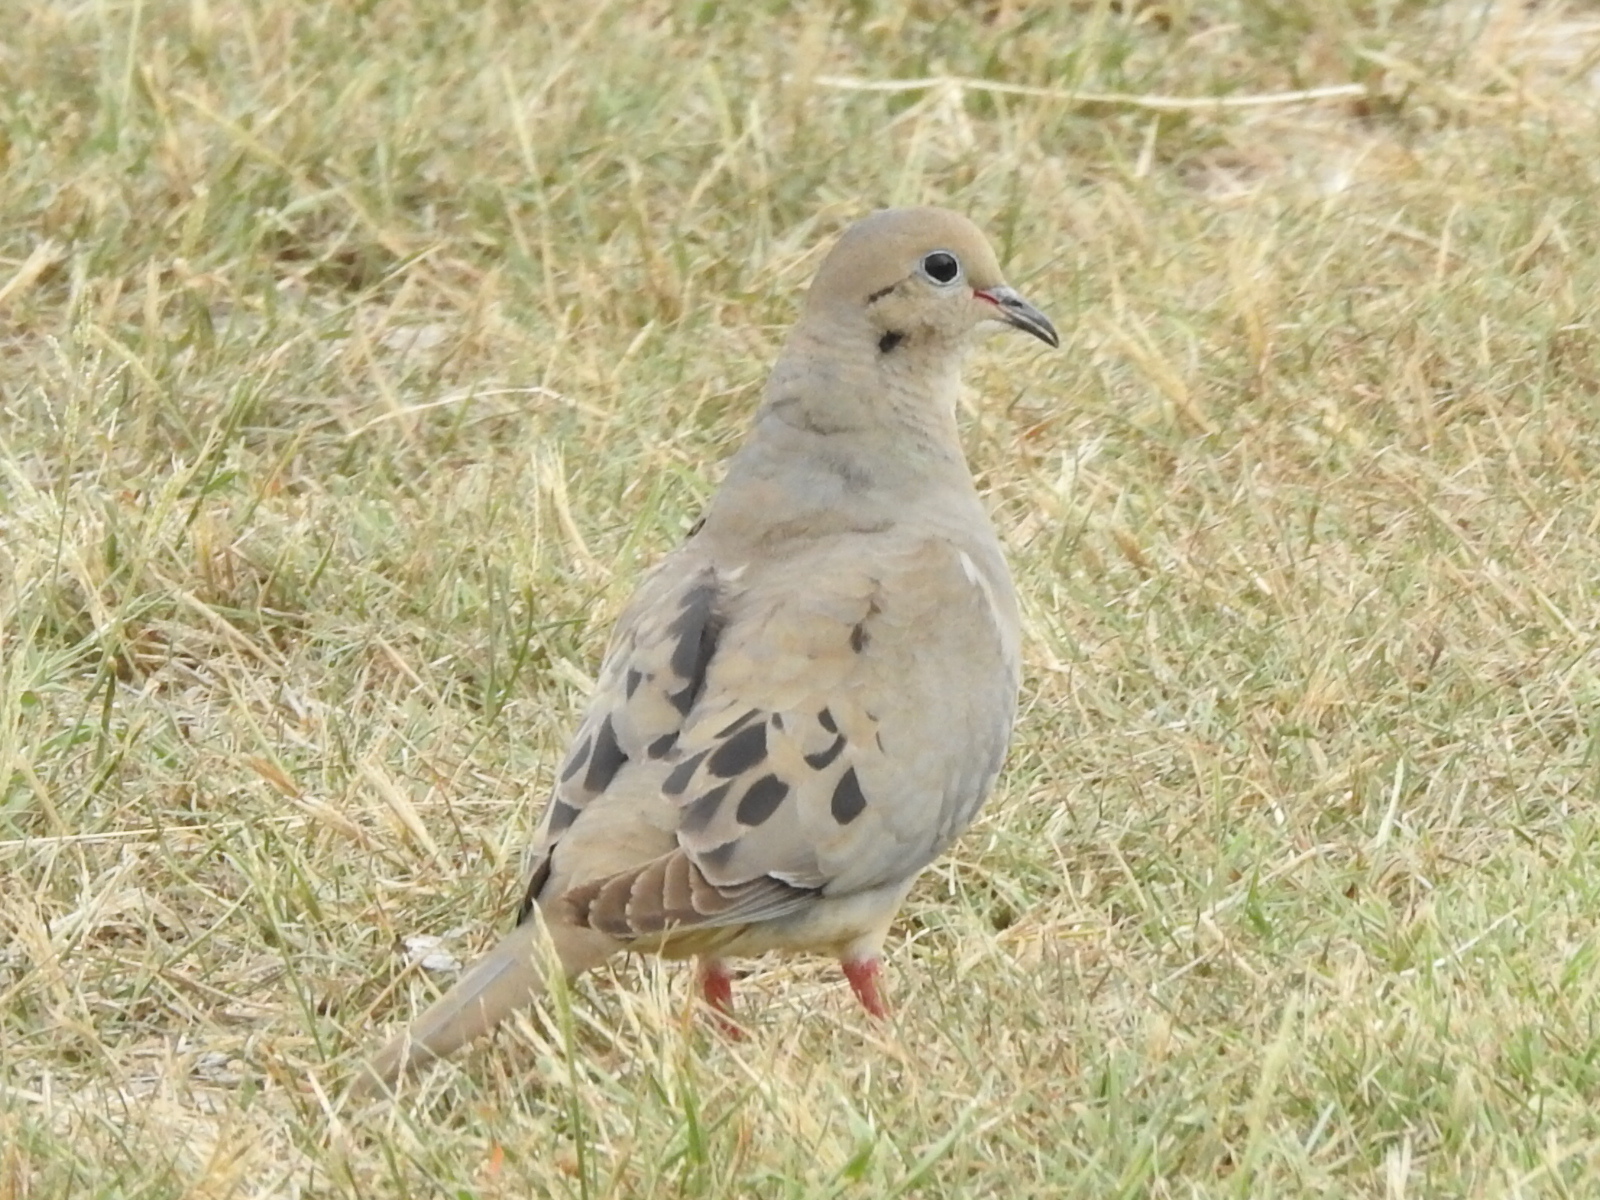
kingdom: Animalia
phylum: Chordata
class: Aves
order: Columbiformes
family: Columbidae
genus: Zenaida
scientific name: Zenaida macroura
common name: Mourning dove
